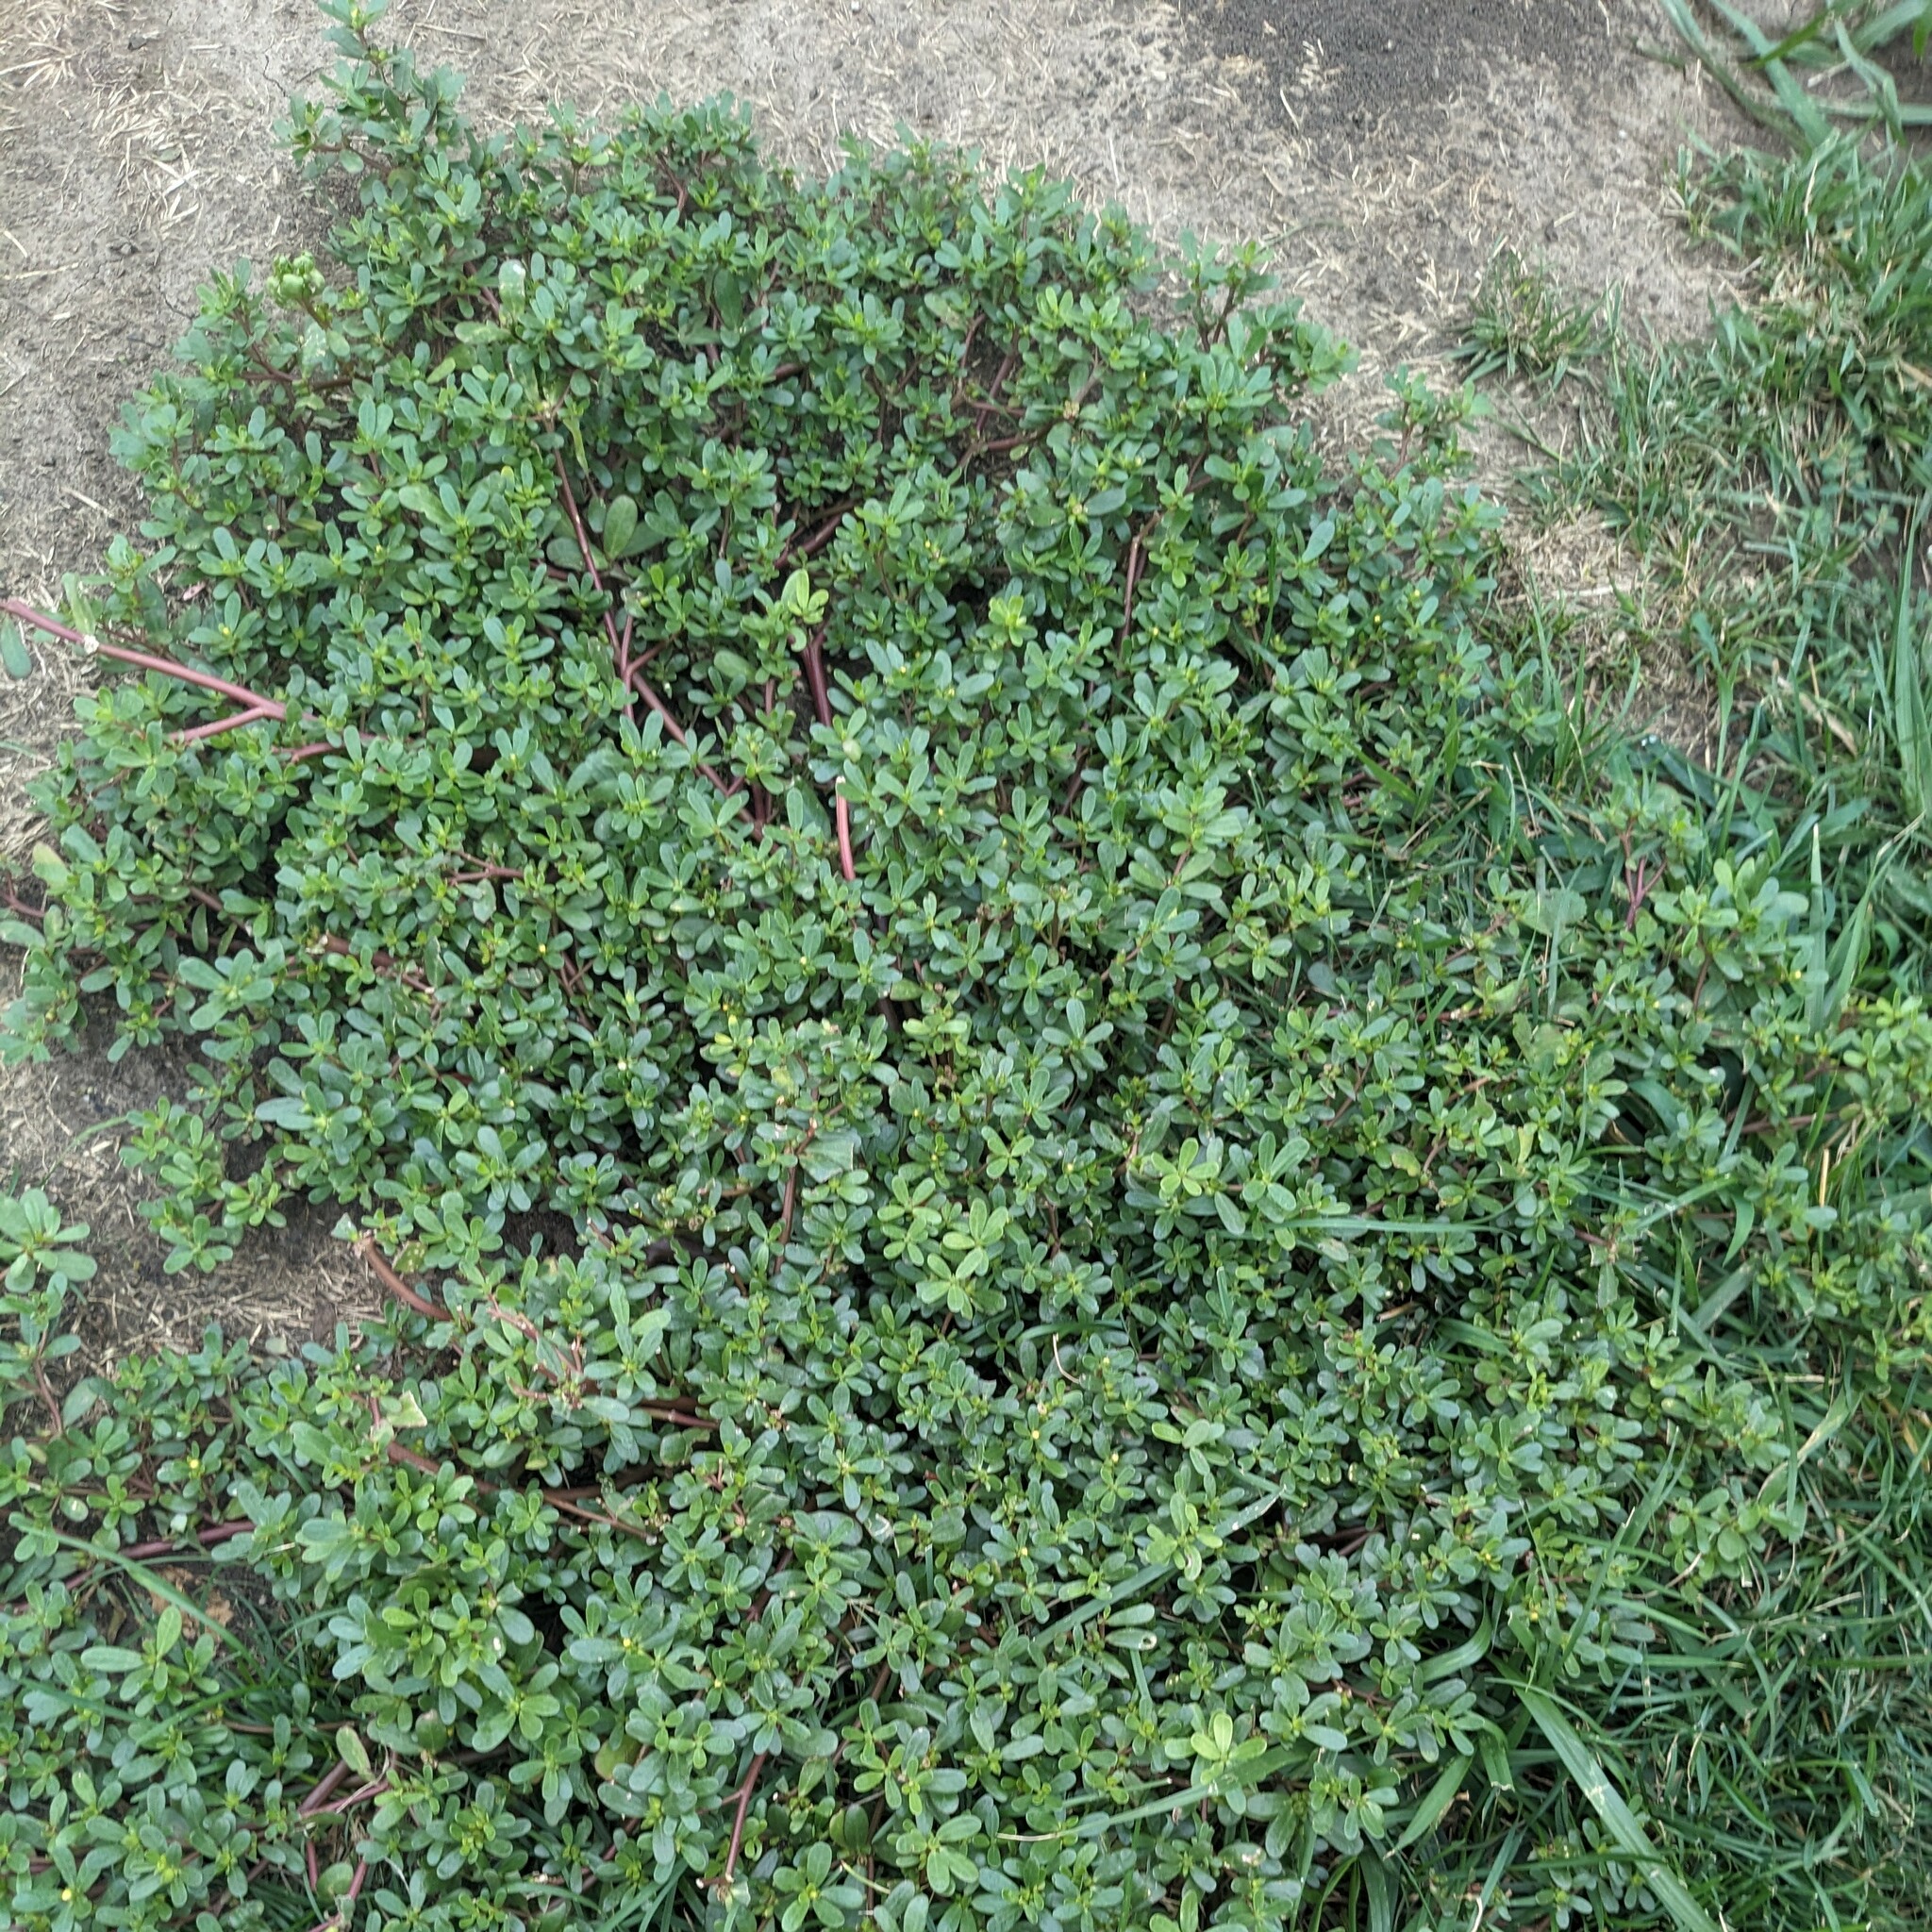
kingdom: Plantae
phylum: Tracheophyta
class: Magnoliopsida
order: Caryophyllales
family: Portulacaceae
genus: Portulaca
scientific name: Portulaca oleracea
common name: Common purslane
